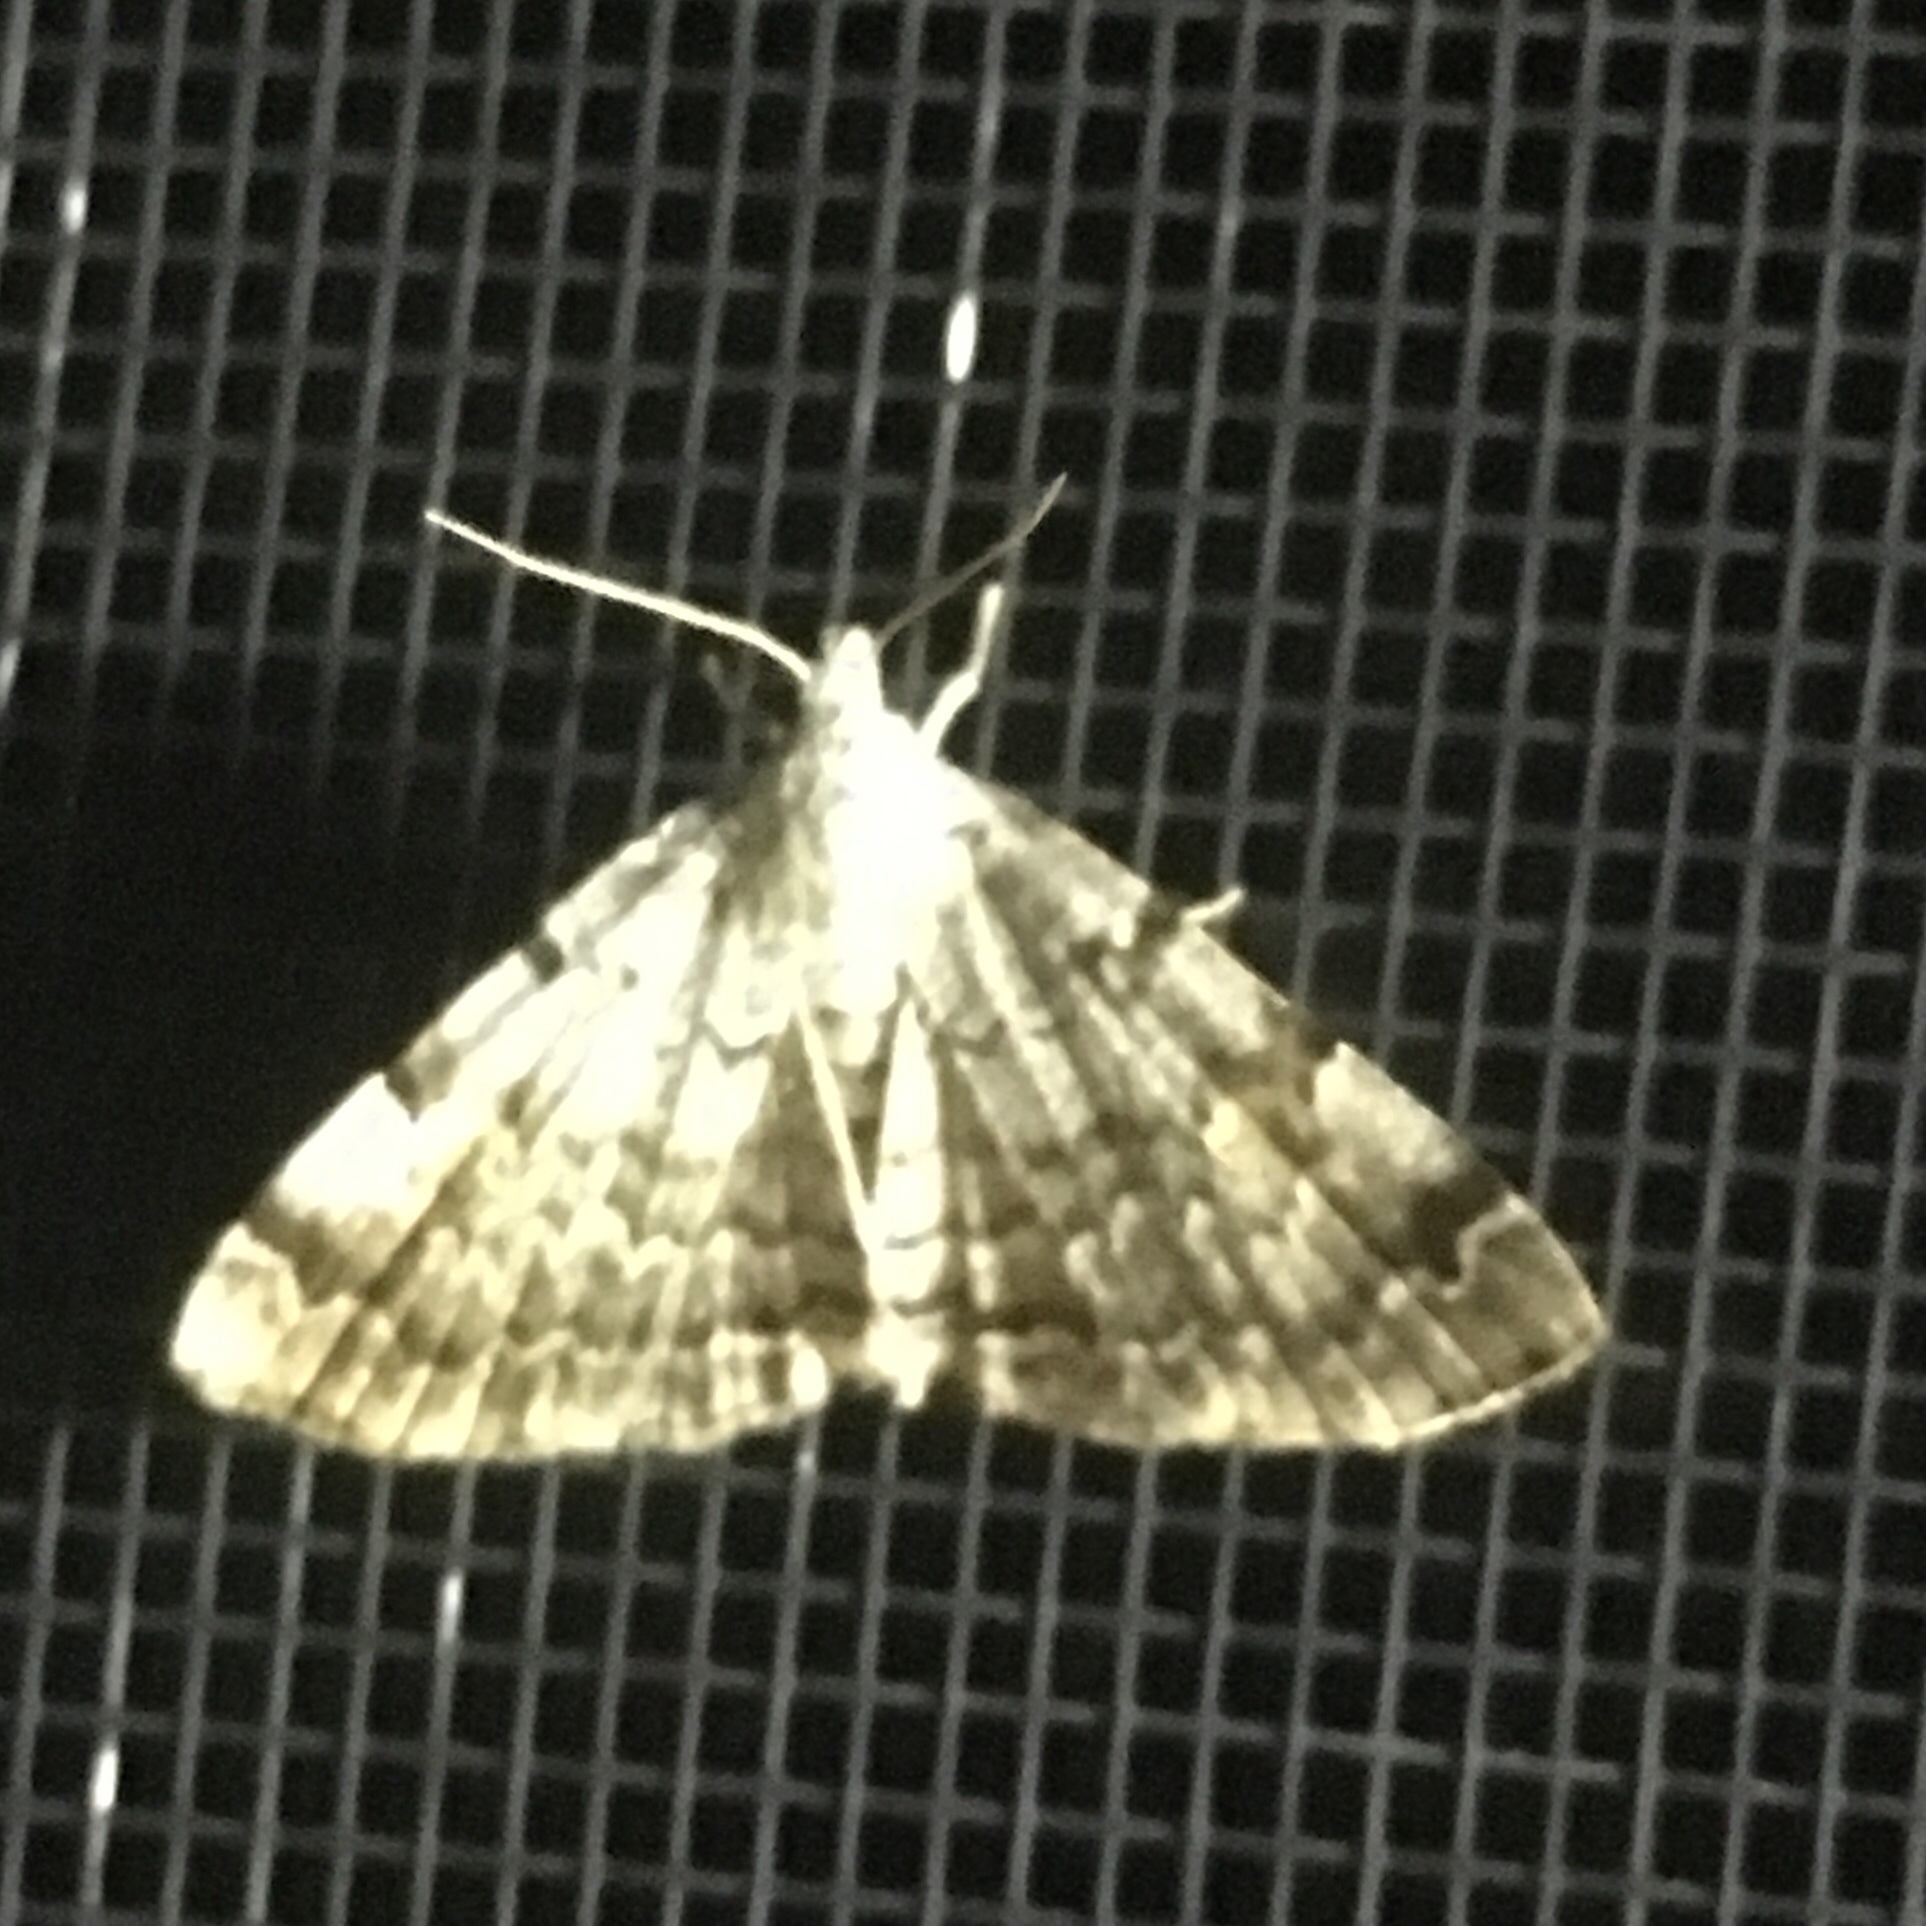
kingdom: Animalia
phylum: Arthropoda
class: Insecta
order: Lepidoptera
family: Erebidae
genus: Idia
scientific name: Idia americalis
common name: American idia moth
